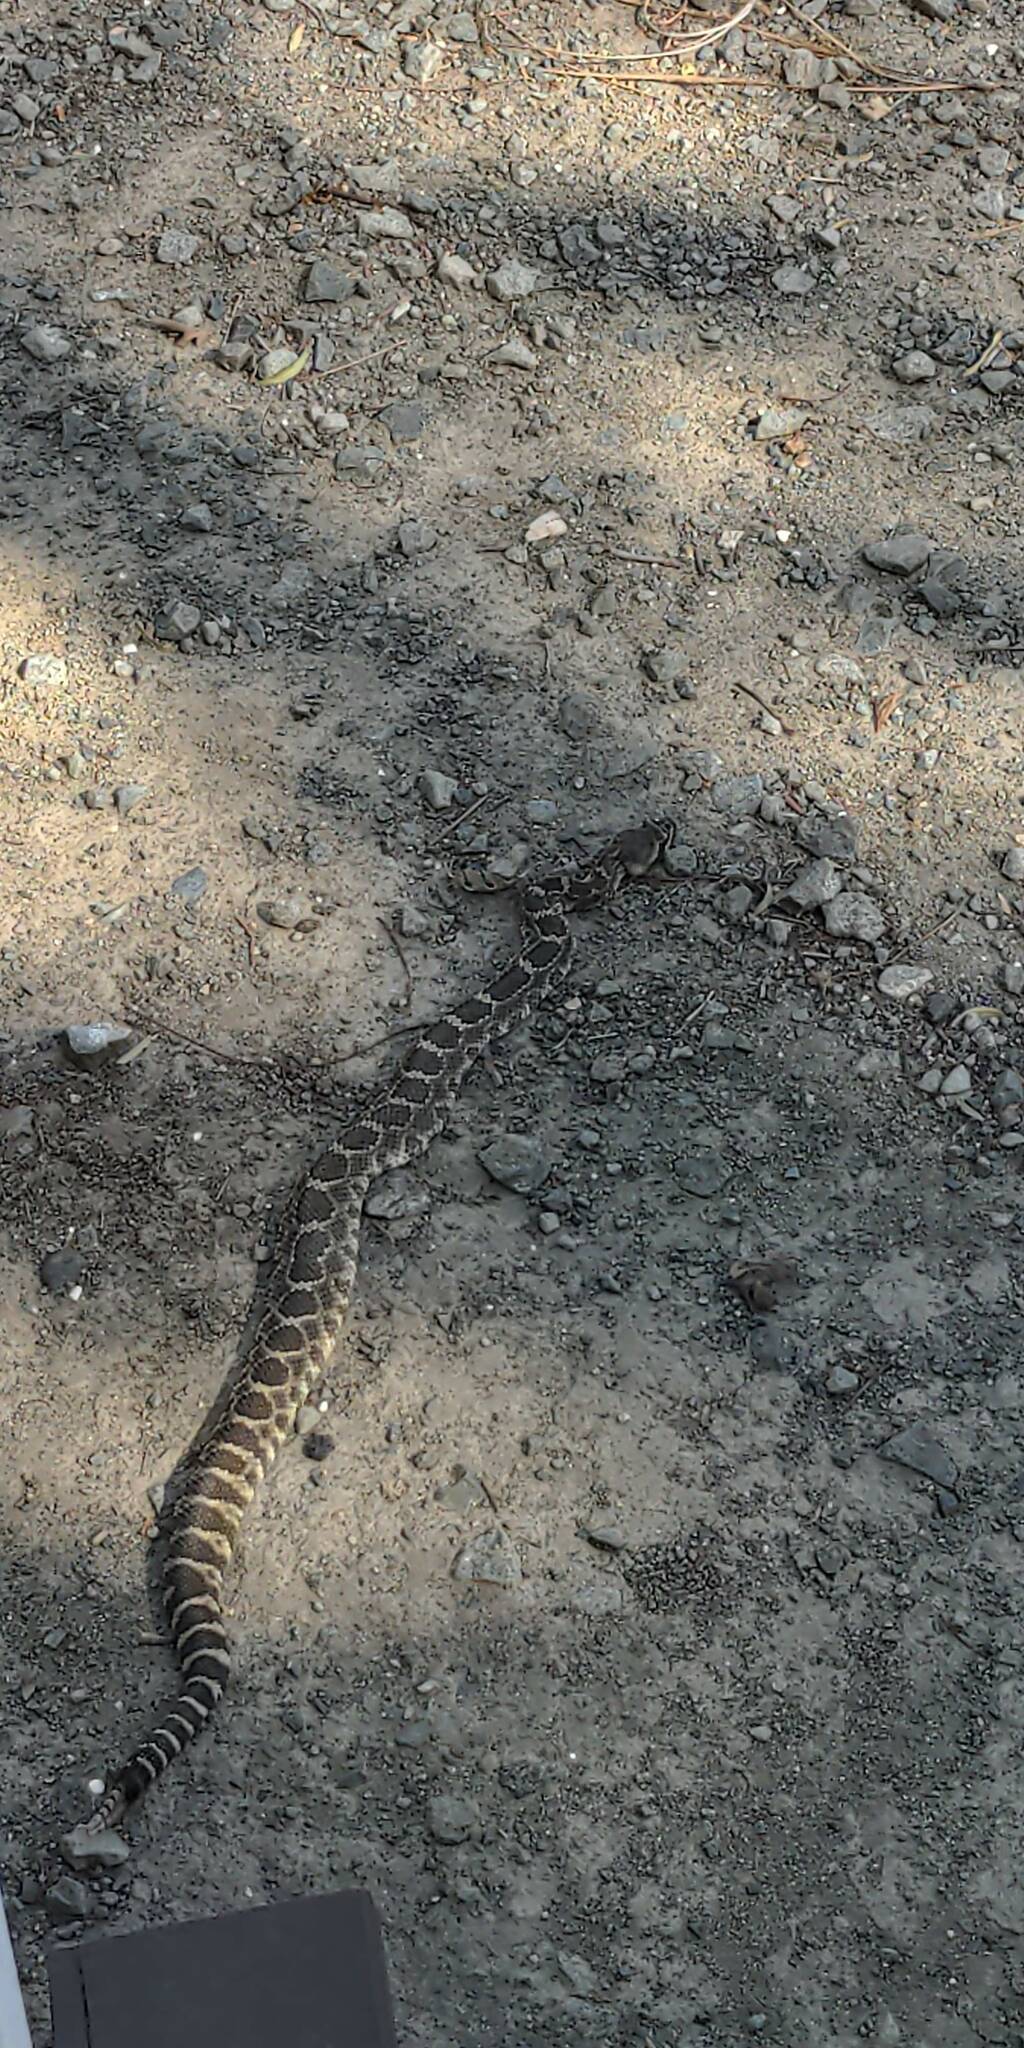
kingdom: Animalia
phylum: Chordata
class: Squamata
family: Viperidae
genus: Crotalus
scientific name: Crotalus oreganus
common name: Abyssus
